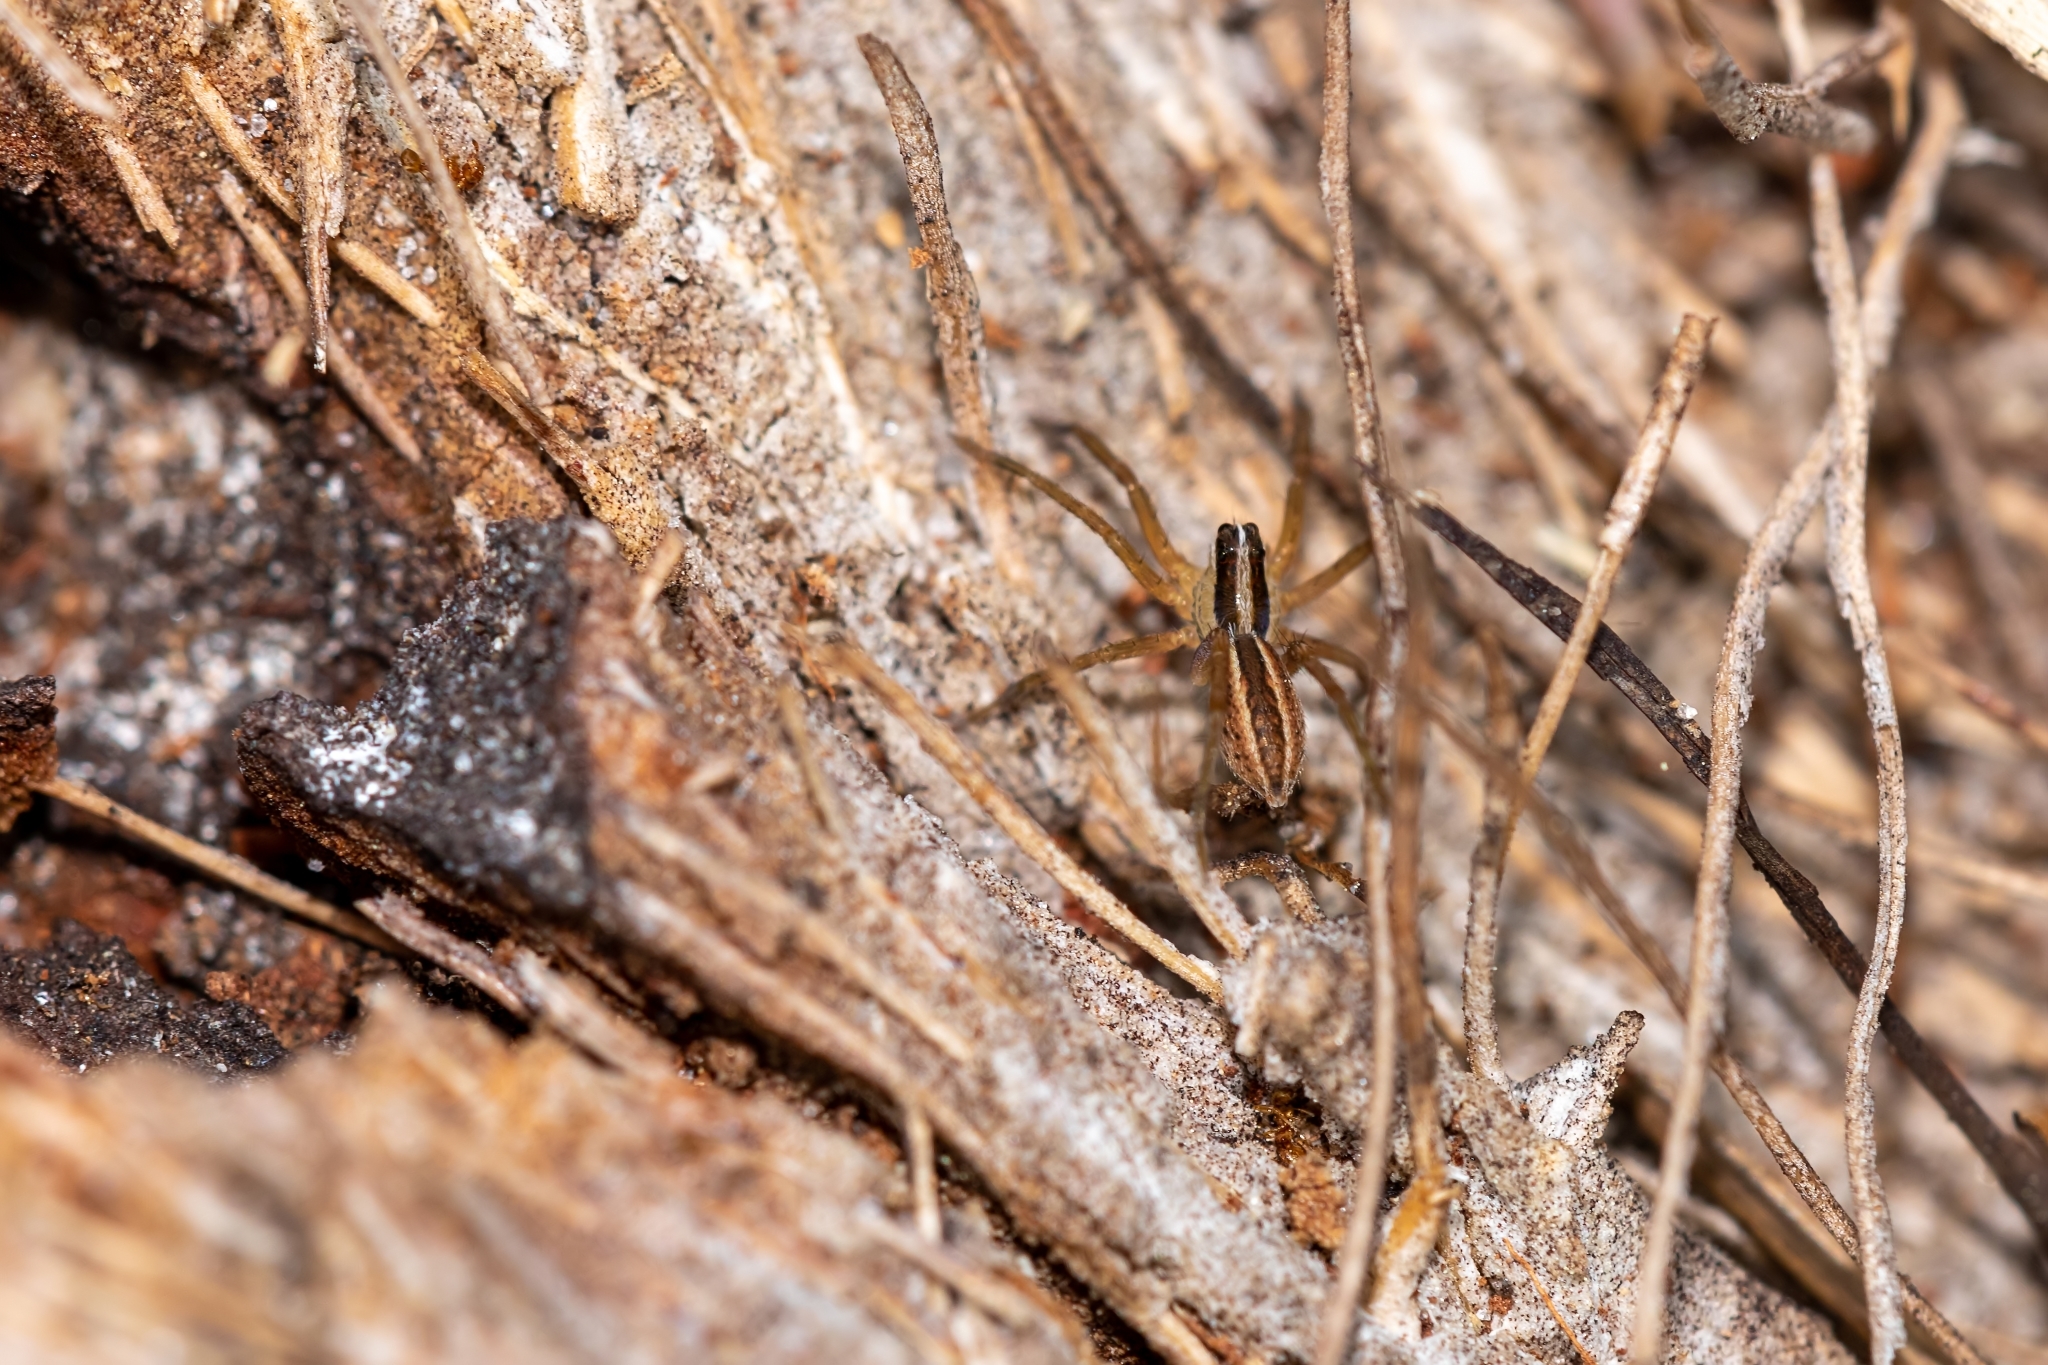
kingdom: Animalia
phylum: Arthropoda
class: Arachnida
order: Araneae
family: Lycosidae
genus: Rabidosa
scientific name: Rabidosa rabida
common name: Rabid wolf spider
